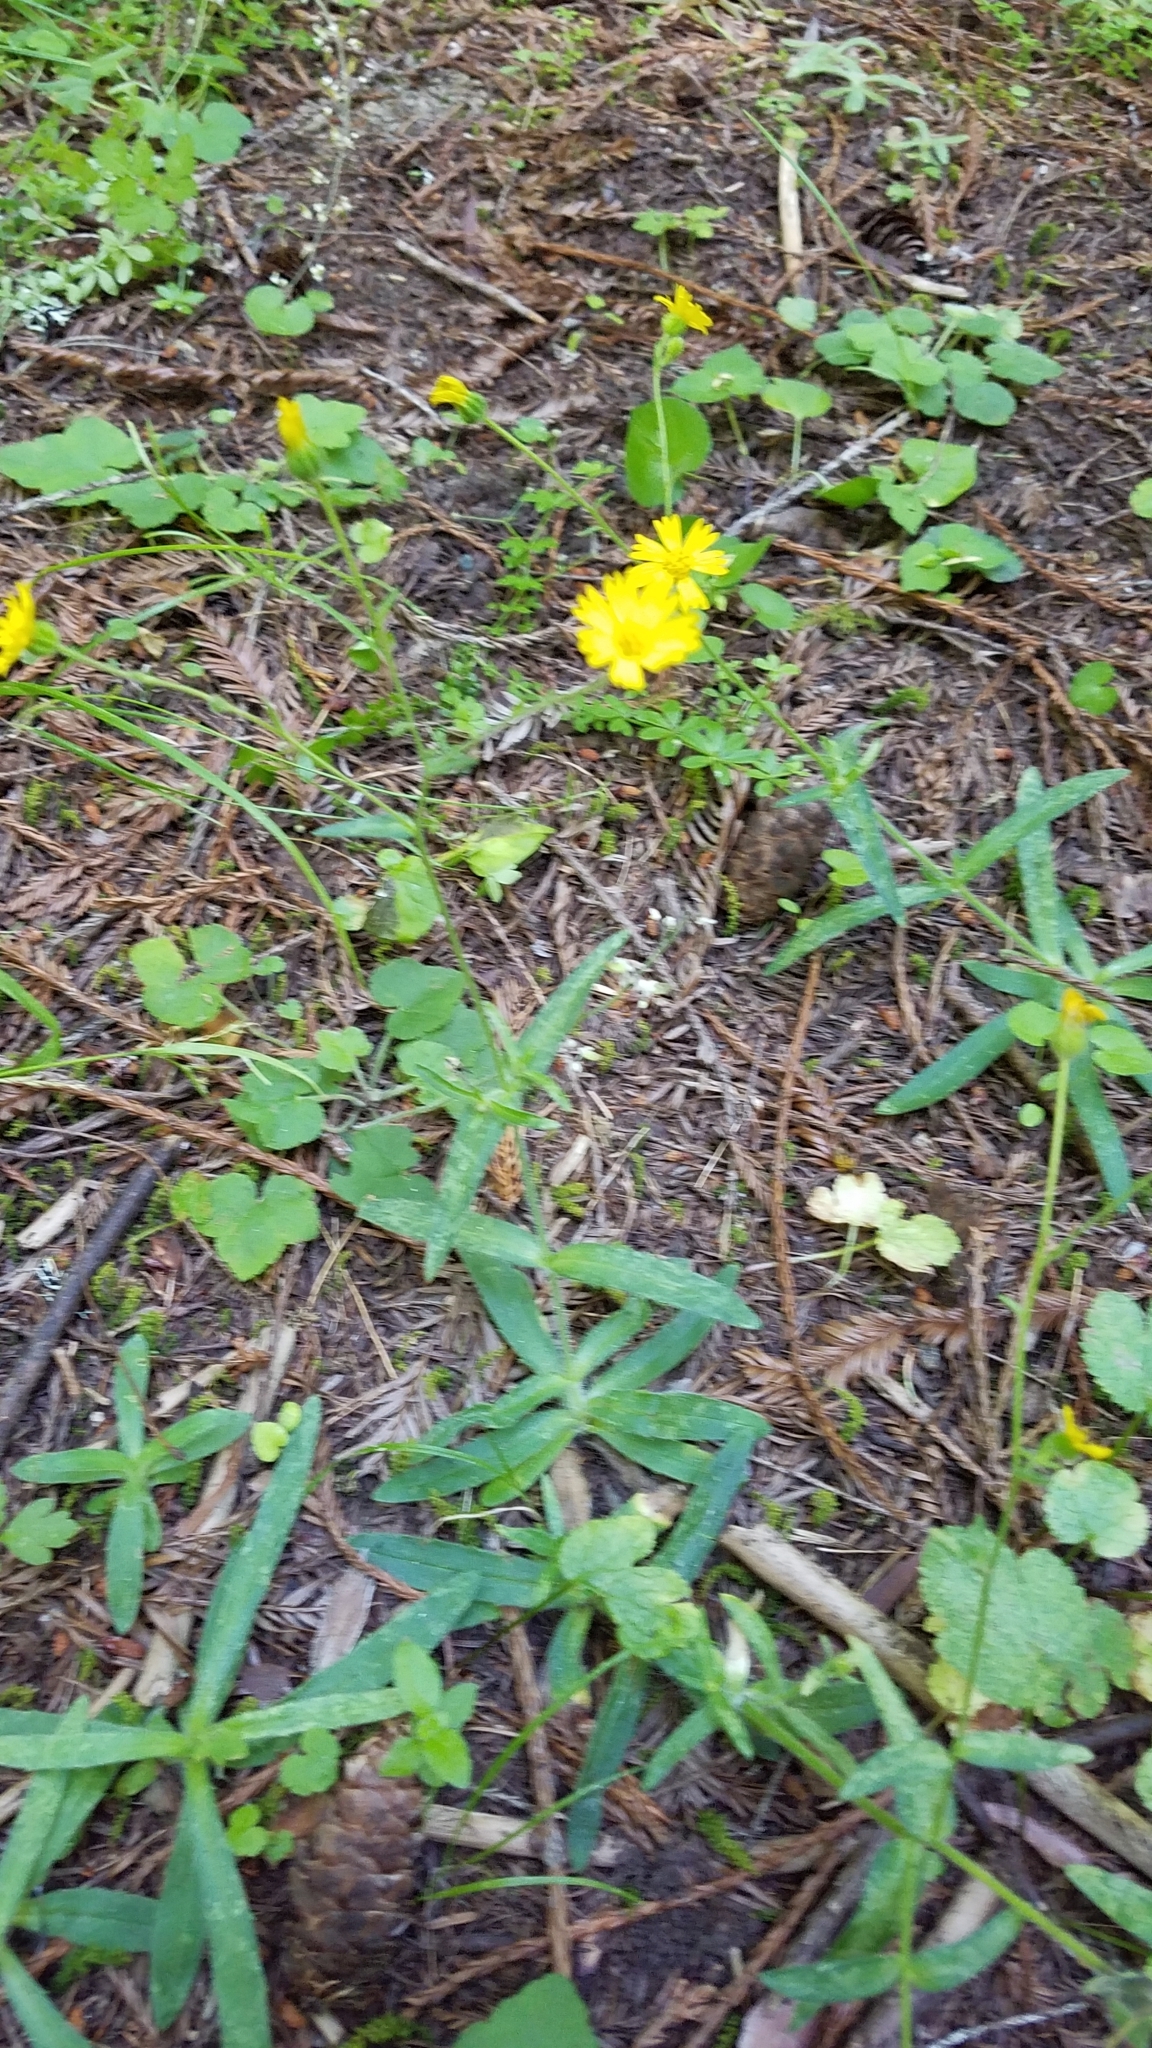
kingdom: Plantae
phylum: Tracheophyta
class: Magnoliopsida
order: Asterales
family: Asteraceae
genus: Anisocarpus
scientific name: Anisocarpus madioides
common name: Woodland madia
